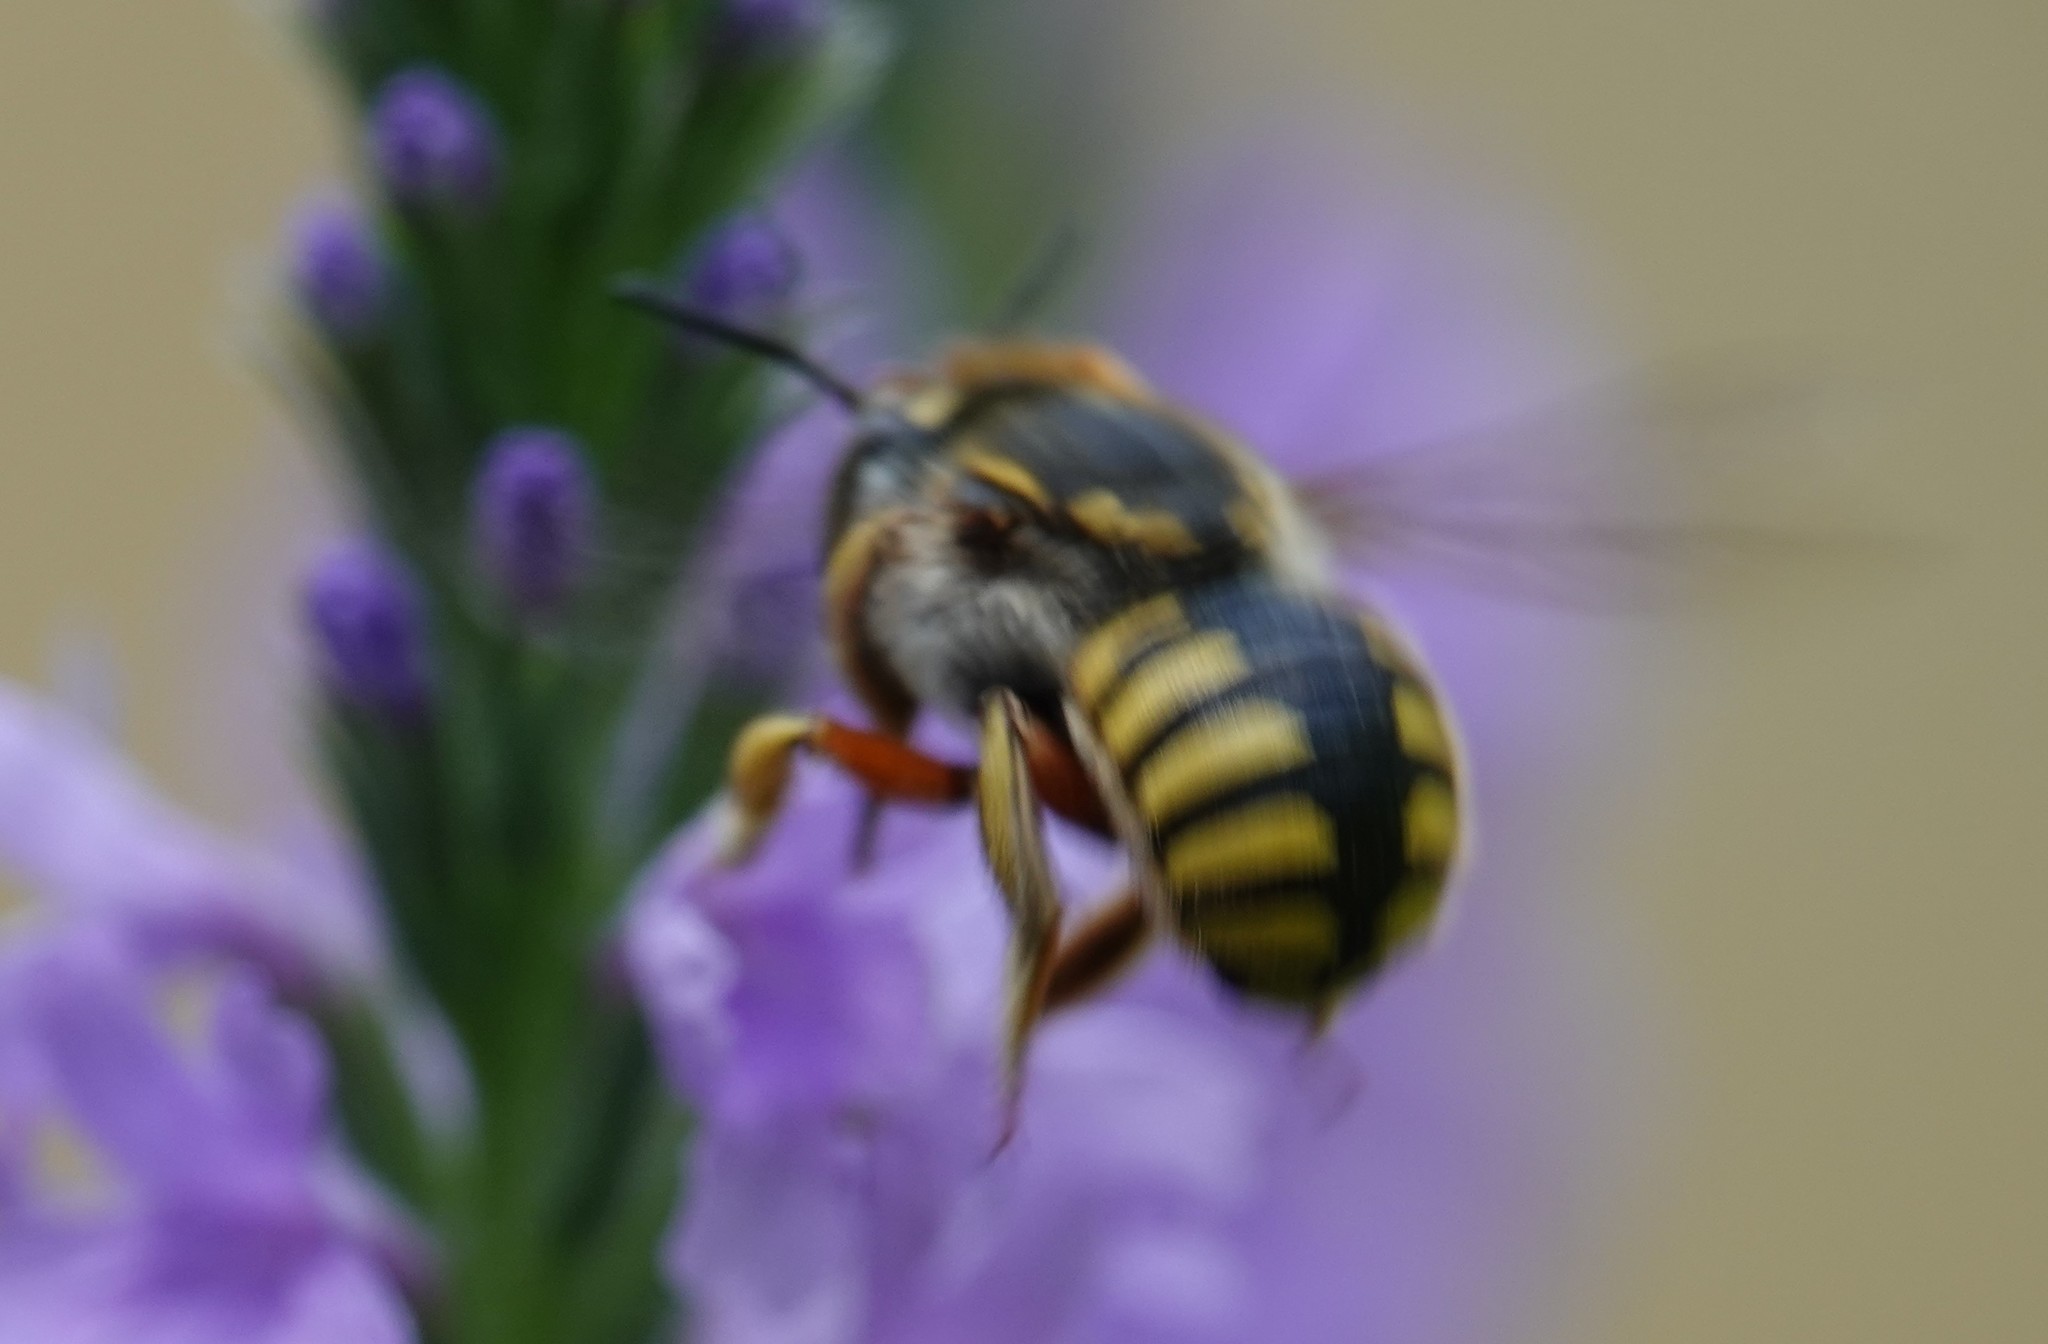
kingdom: Animalia
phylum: Arthropoda
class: Insecta
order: Hymenoptera
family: Megachilidae
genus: Anthidium
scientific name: Anthidium manicatum
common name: Wool carder bee
